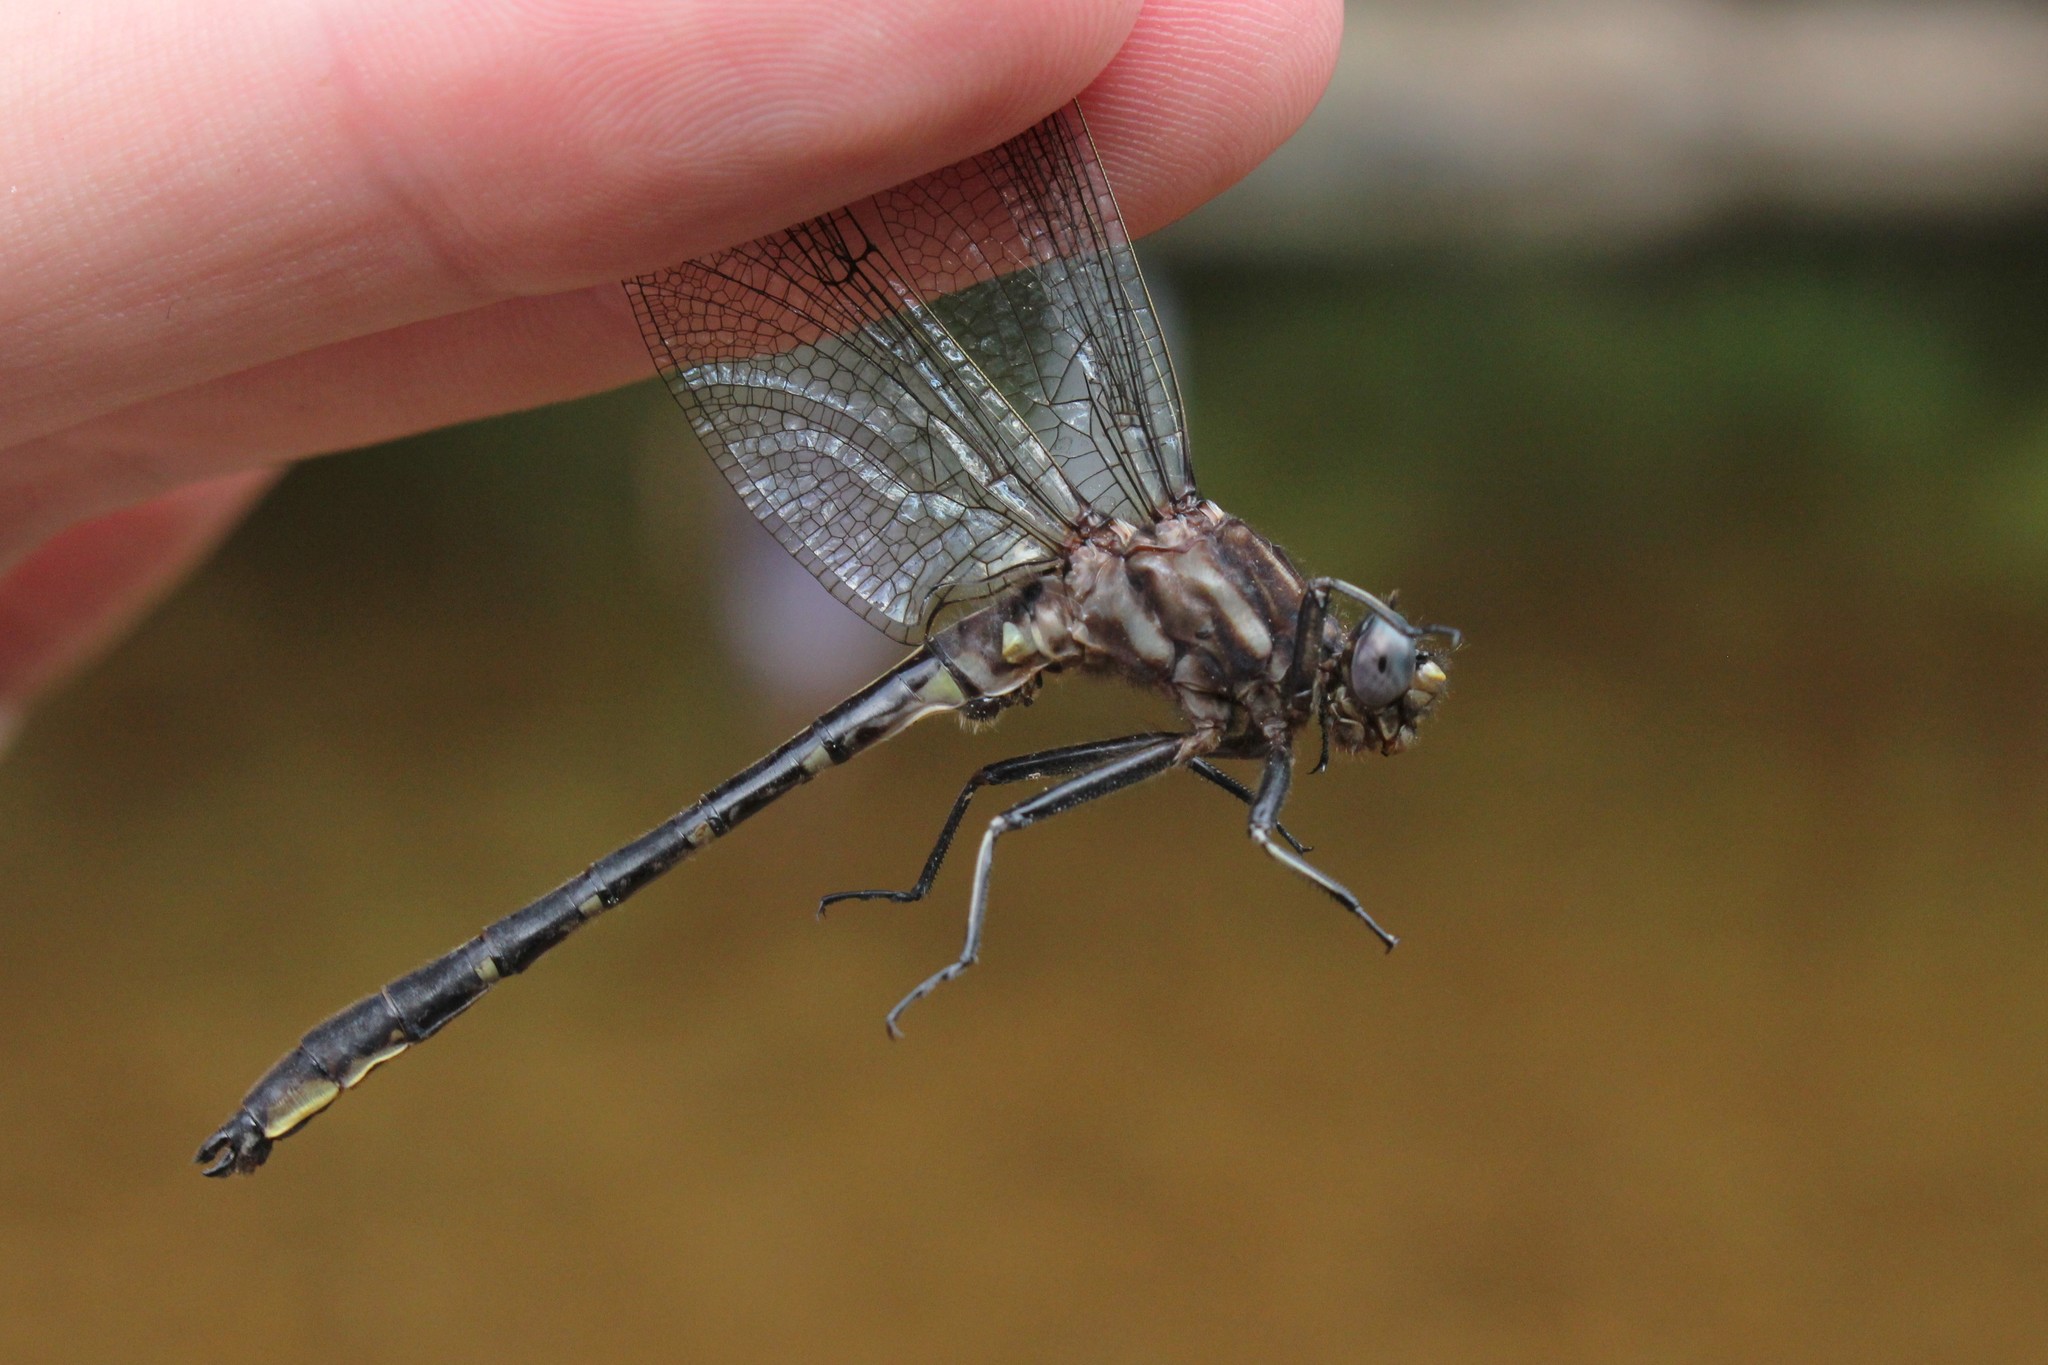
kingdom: Animalia
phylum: Arthropoda
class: Insecta
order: Odonata
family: Gomphidae
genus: Phanogomphus
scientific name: Phanogomphus lividus
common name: Ashy clubtail
